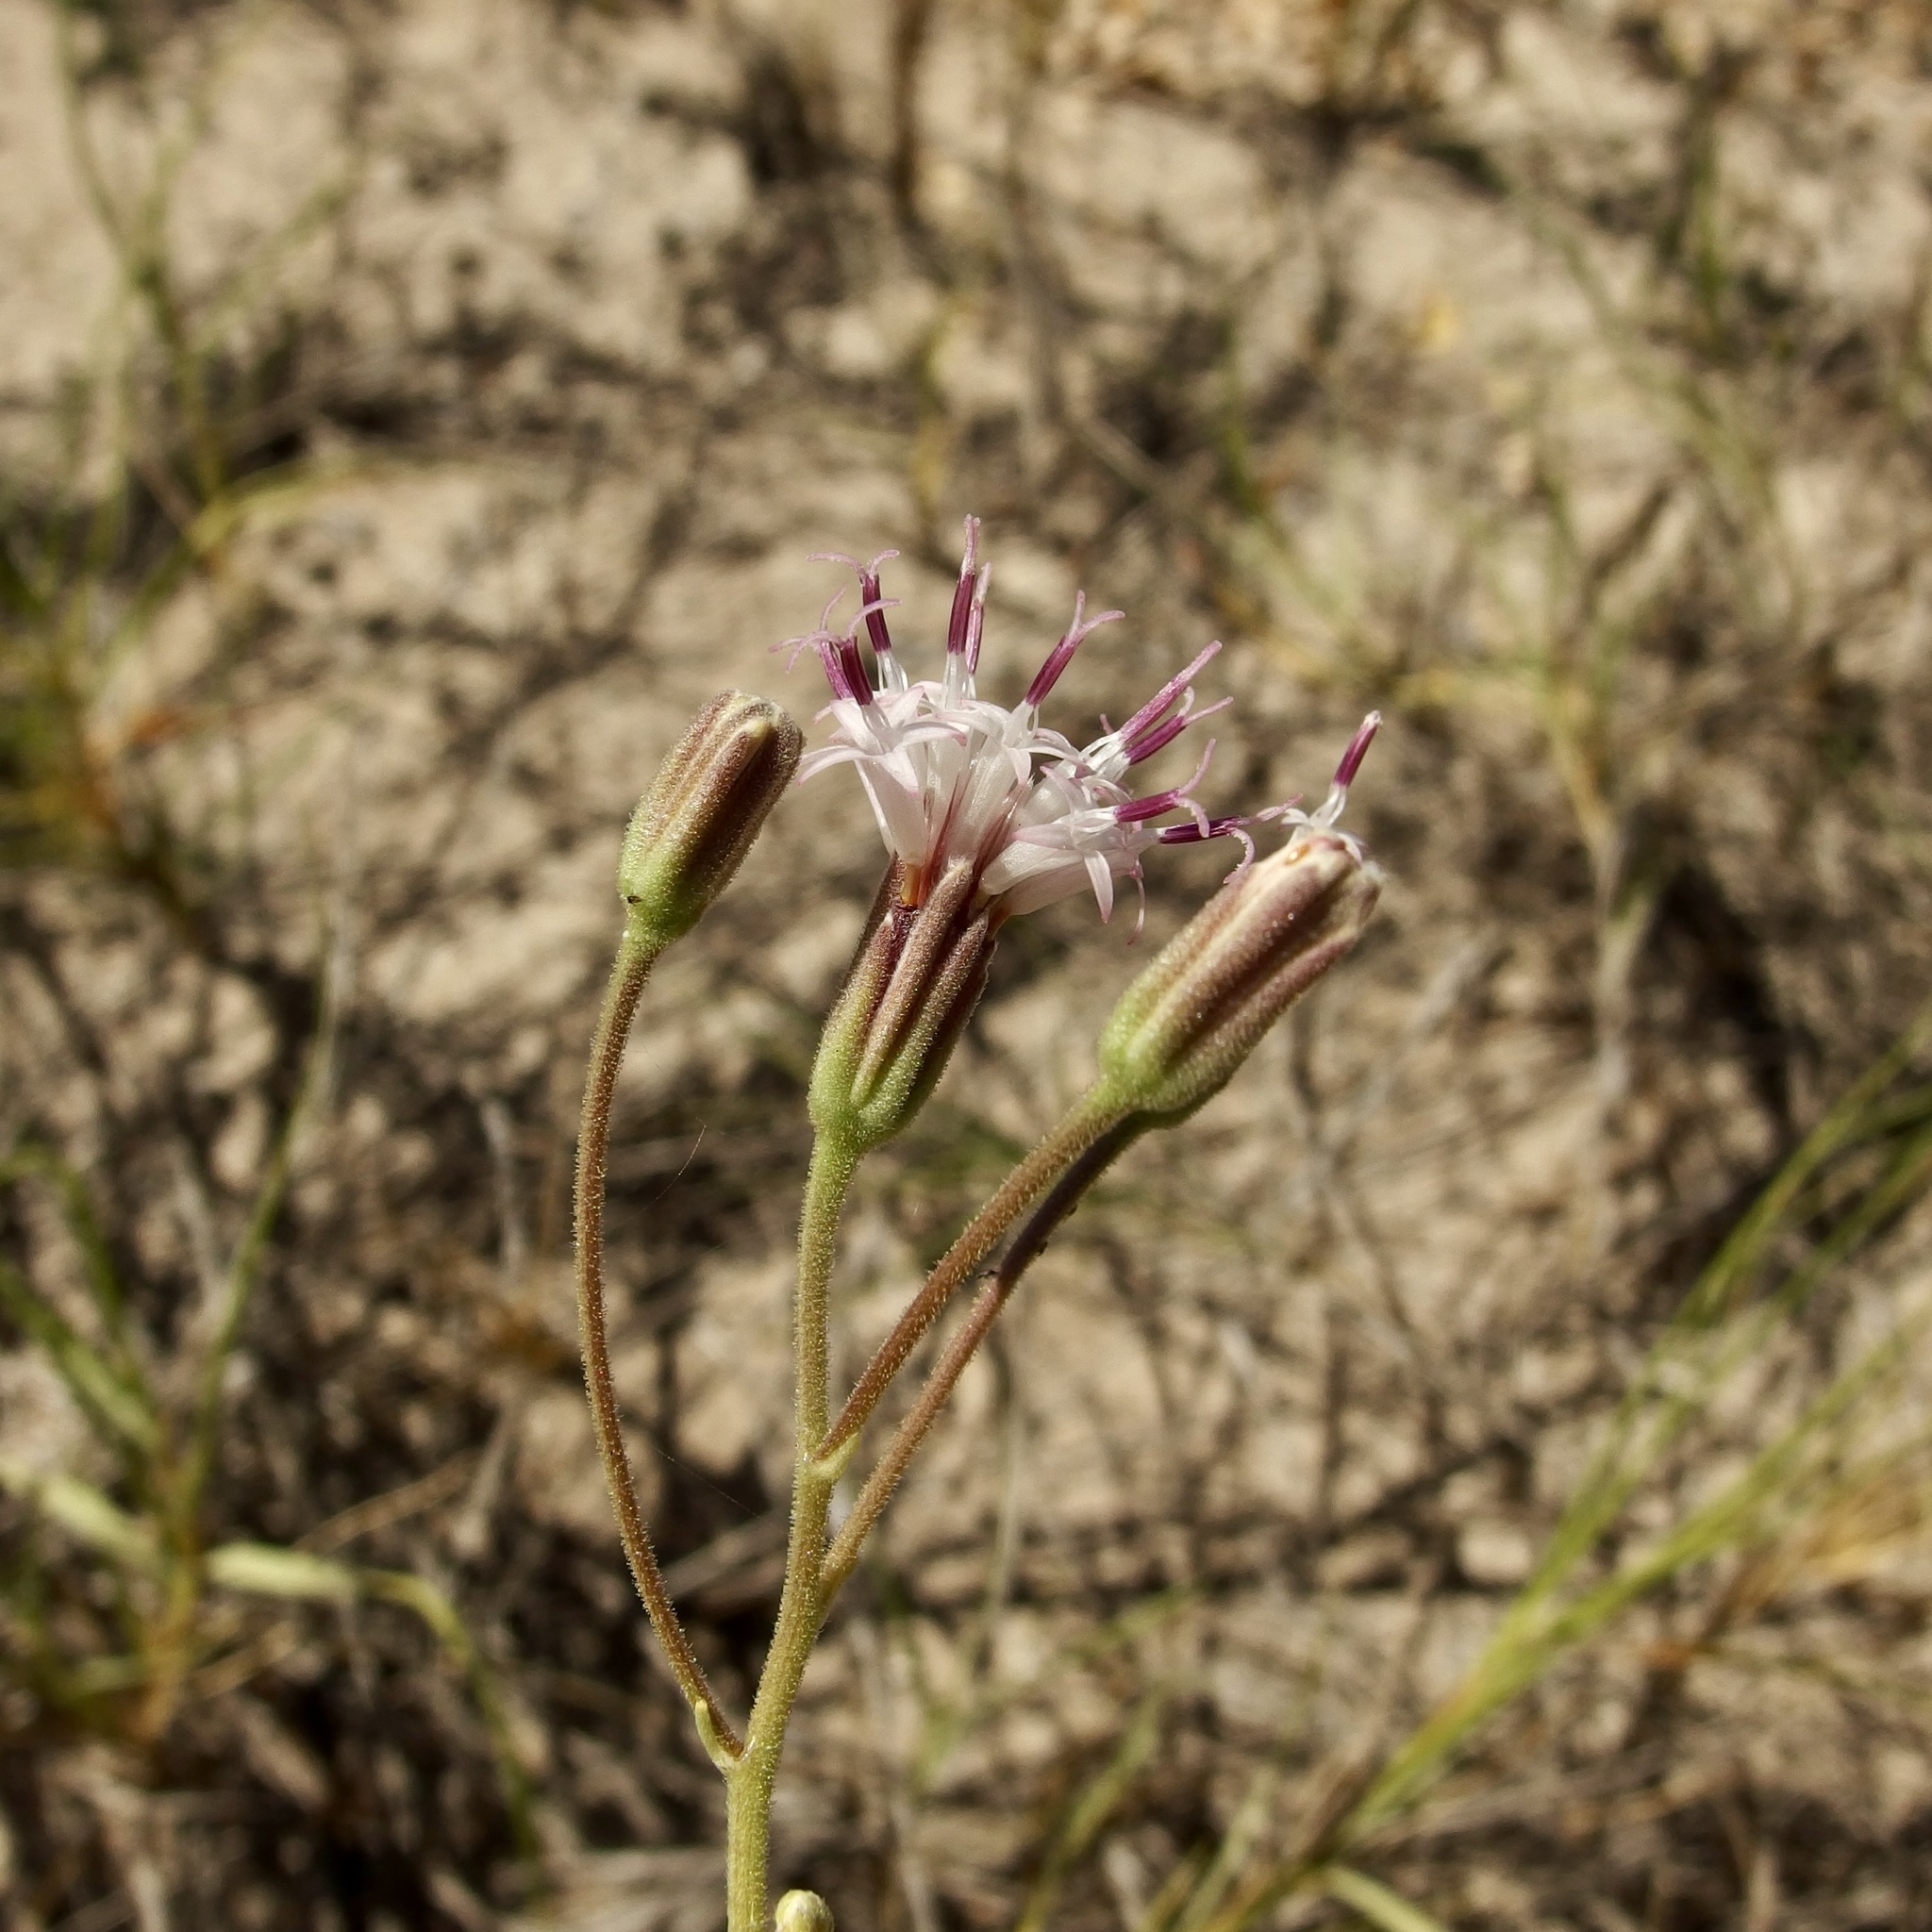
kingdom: Plantae
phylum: Tracheophyta
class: Magnoliopsida
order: Asterales
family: Asteraceae
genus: Palafoxia
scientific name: Palafoxia linearis
